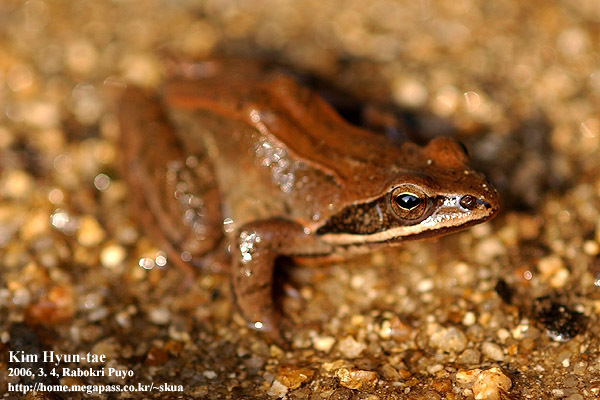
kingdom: Animalia
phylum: Chordata
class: Amphibia
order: Anura
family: Ranidae
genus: Rana
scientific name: Rana coreana
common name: Korean brown frog
